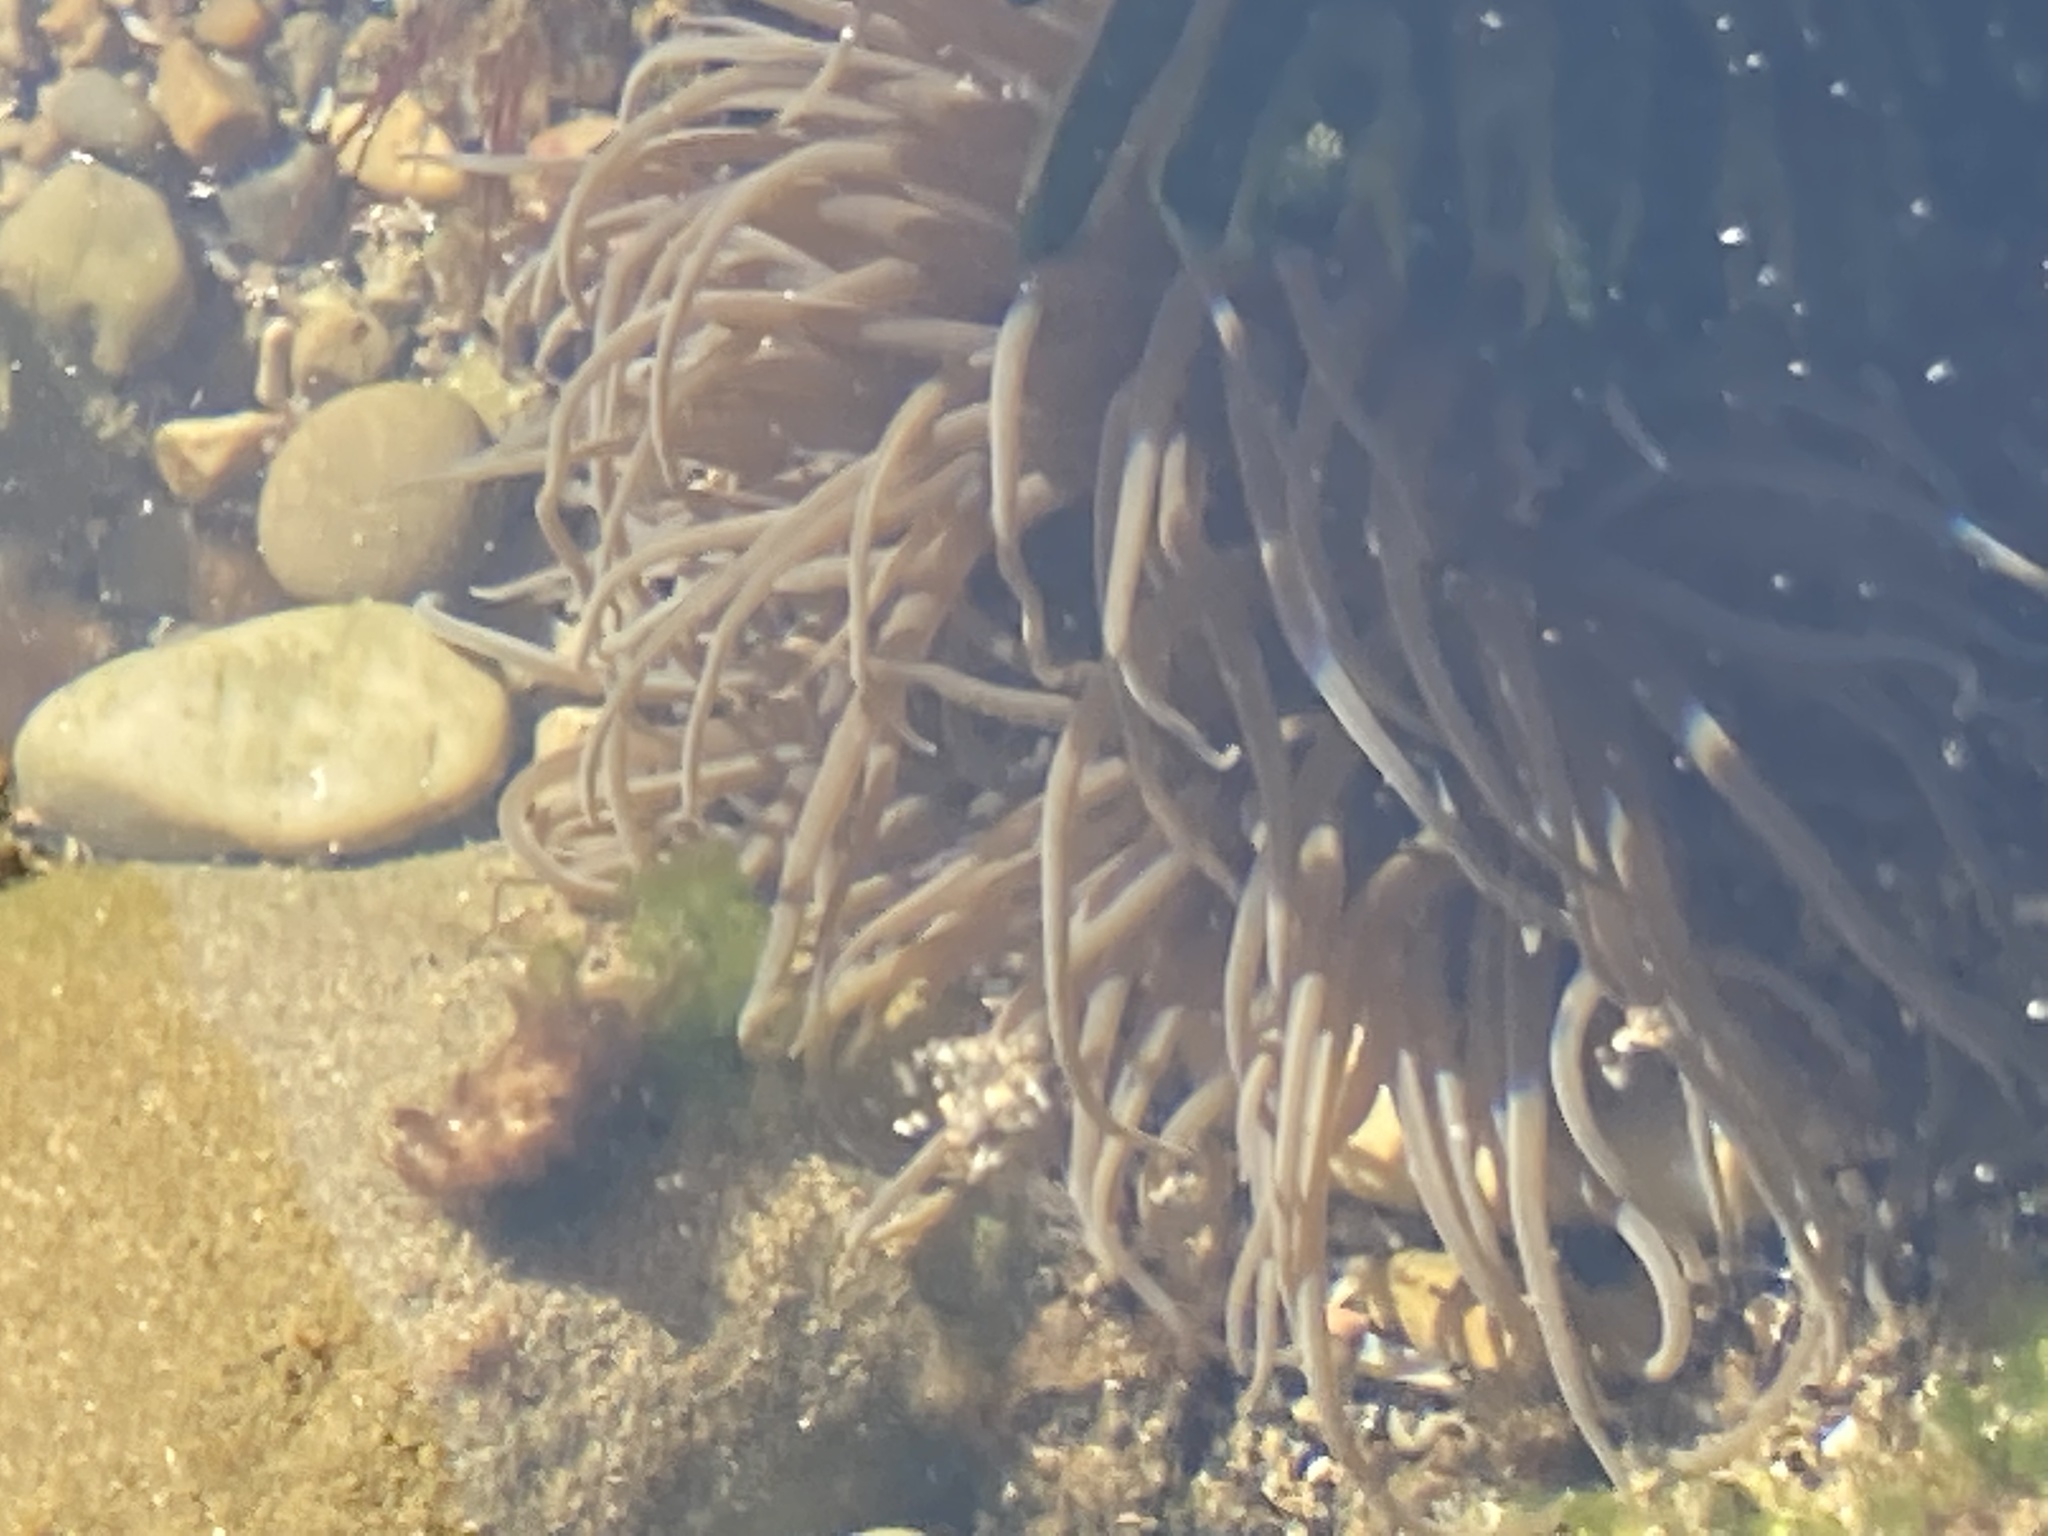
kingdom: Animalia
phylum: Cnidaria
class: Anthozoa
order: Actiniaria
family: Actiniidae
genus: Anemonia
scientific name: Anemonia viridis
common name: Snakelocks anemone
